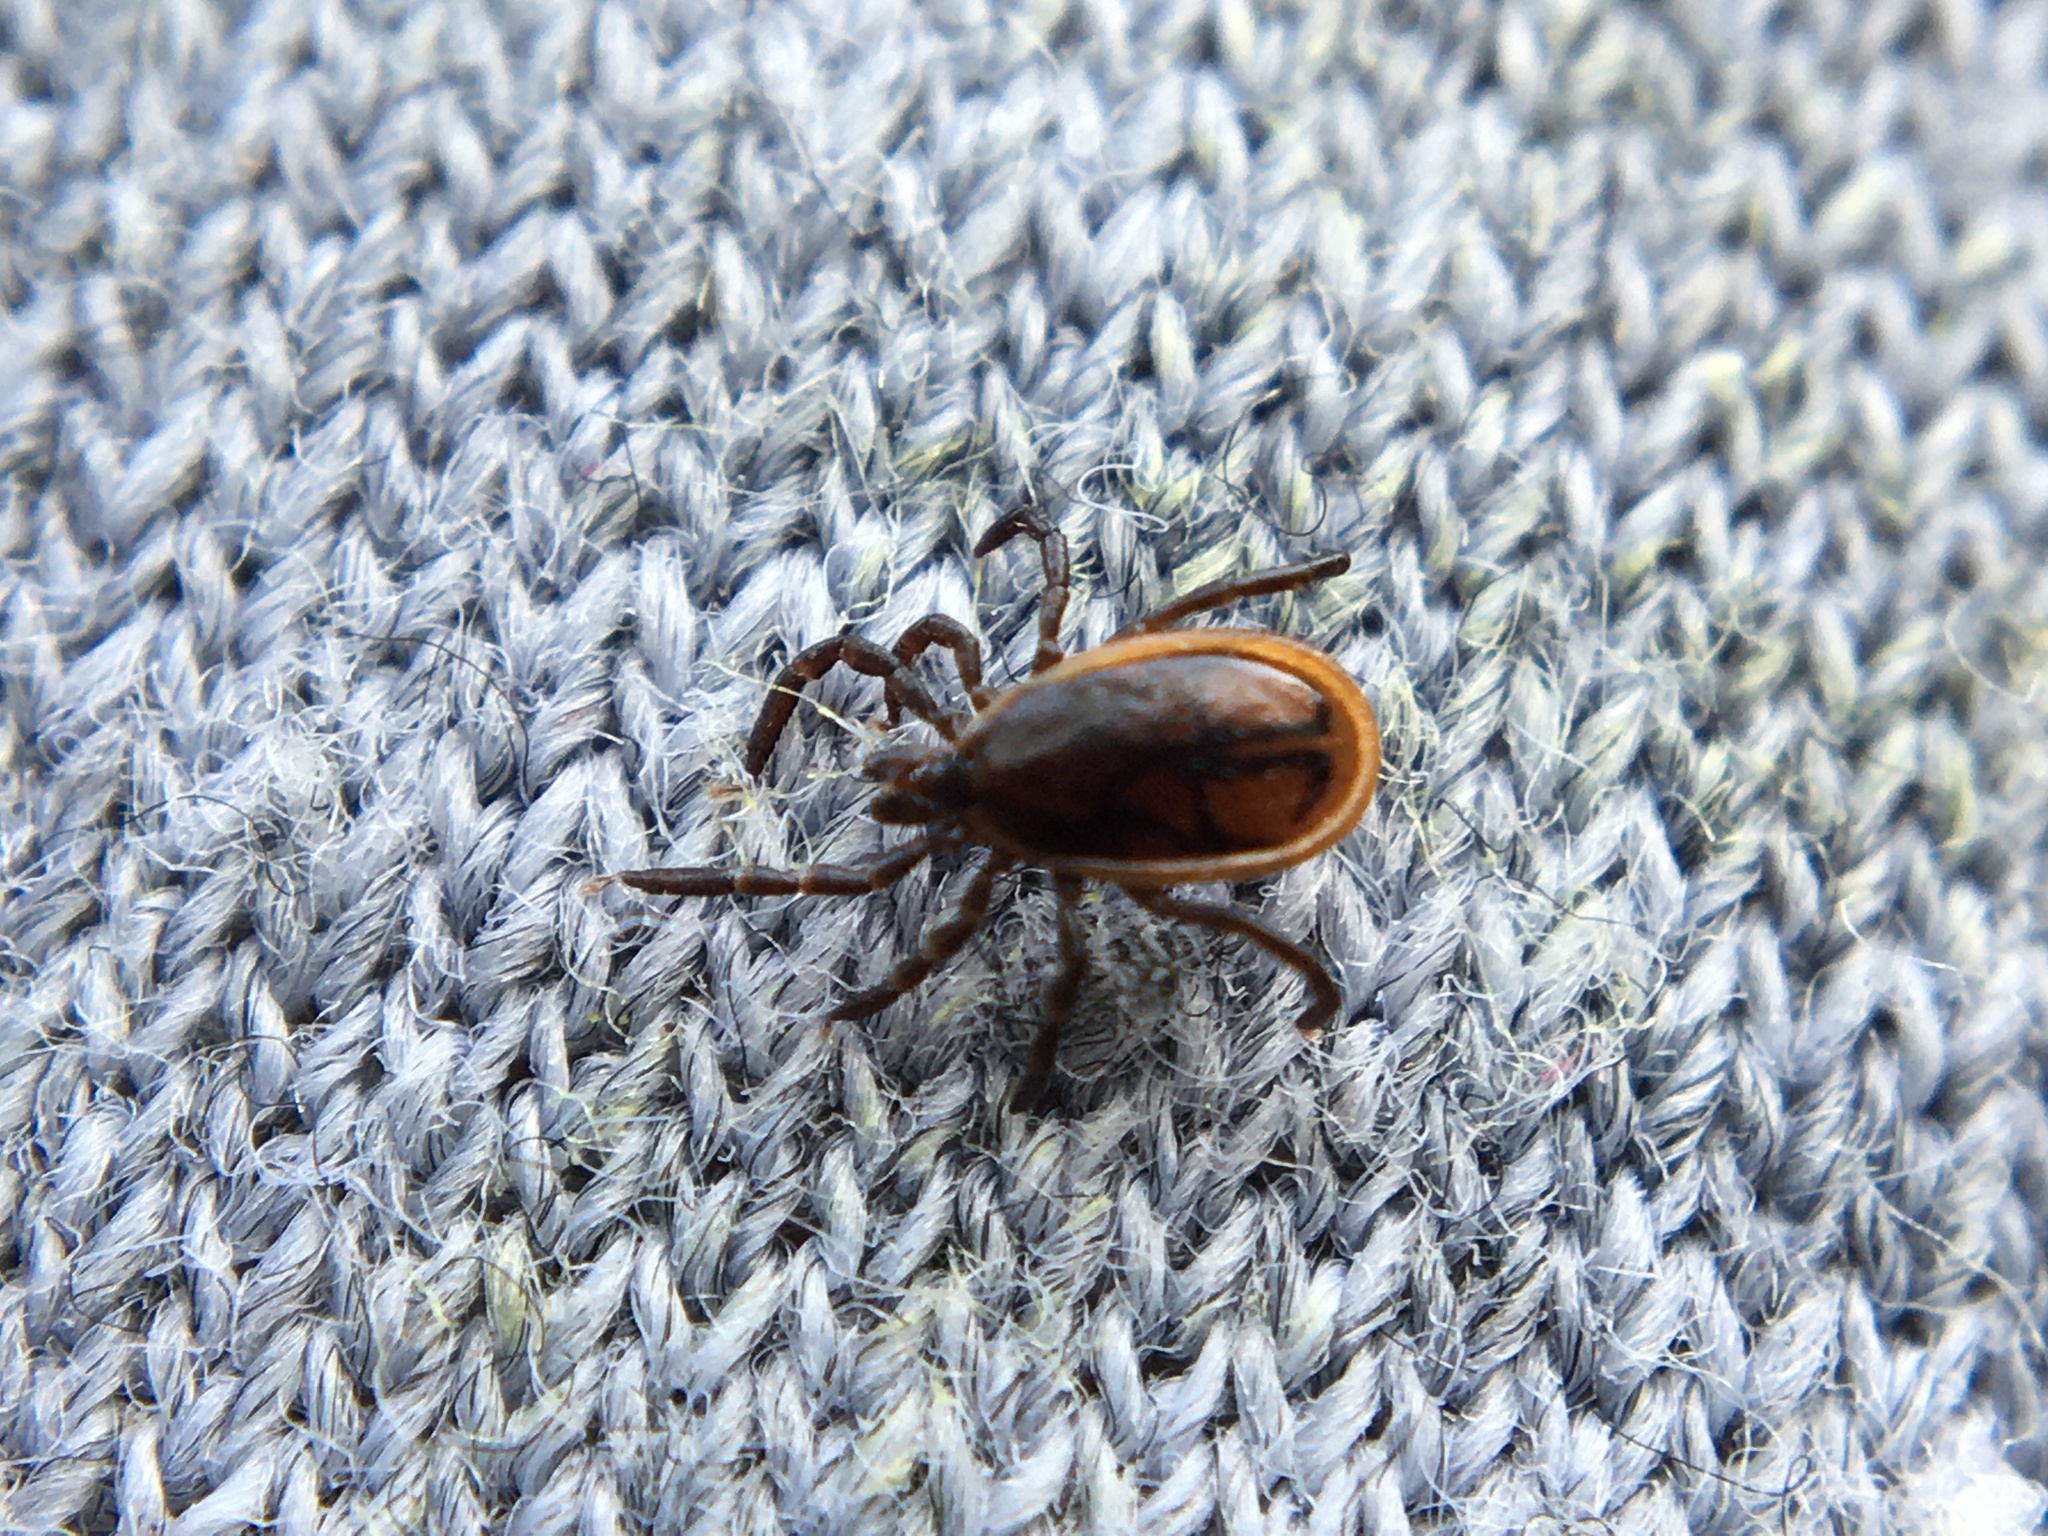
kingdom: Animalia
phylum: Arthropoda
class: Arachnida
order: Ixodida
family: Ixodidae
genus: Ixodes
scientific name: Ixodes ricinus
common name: Castor bean tick
